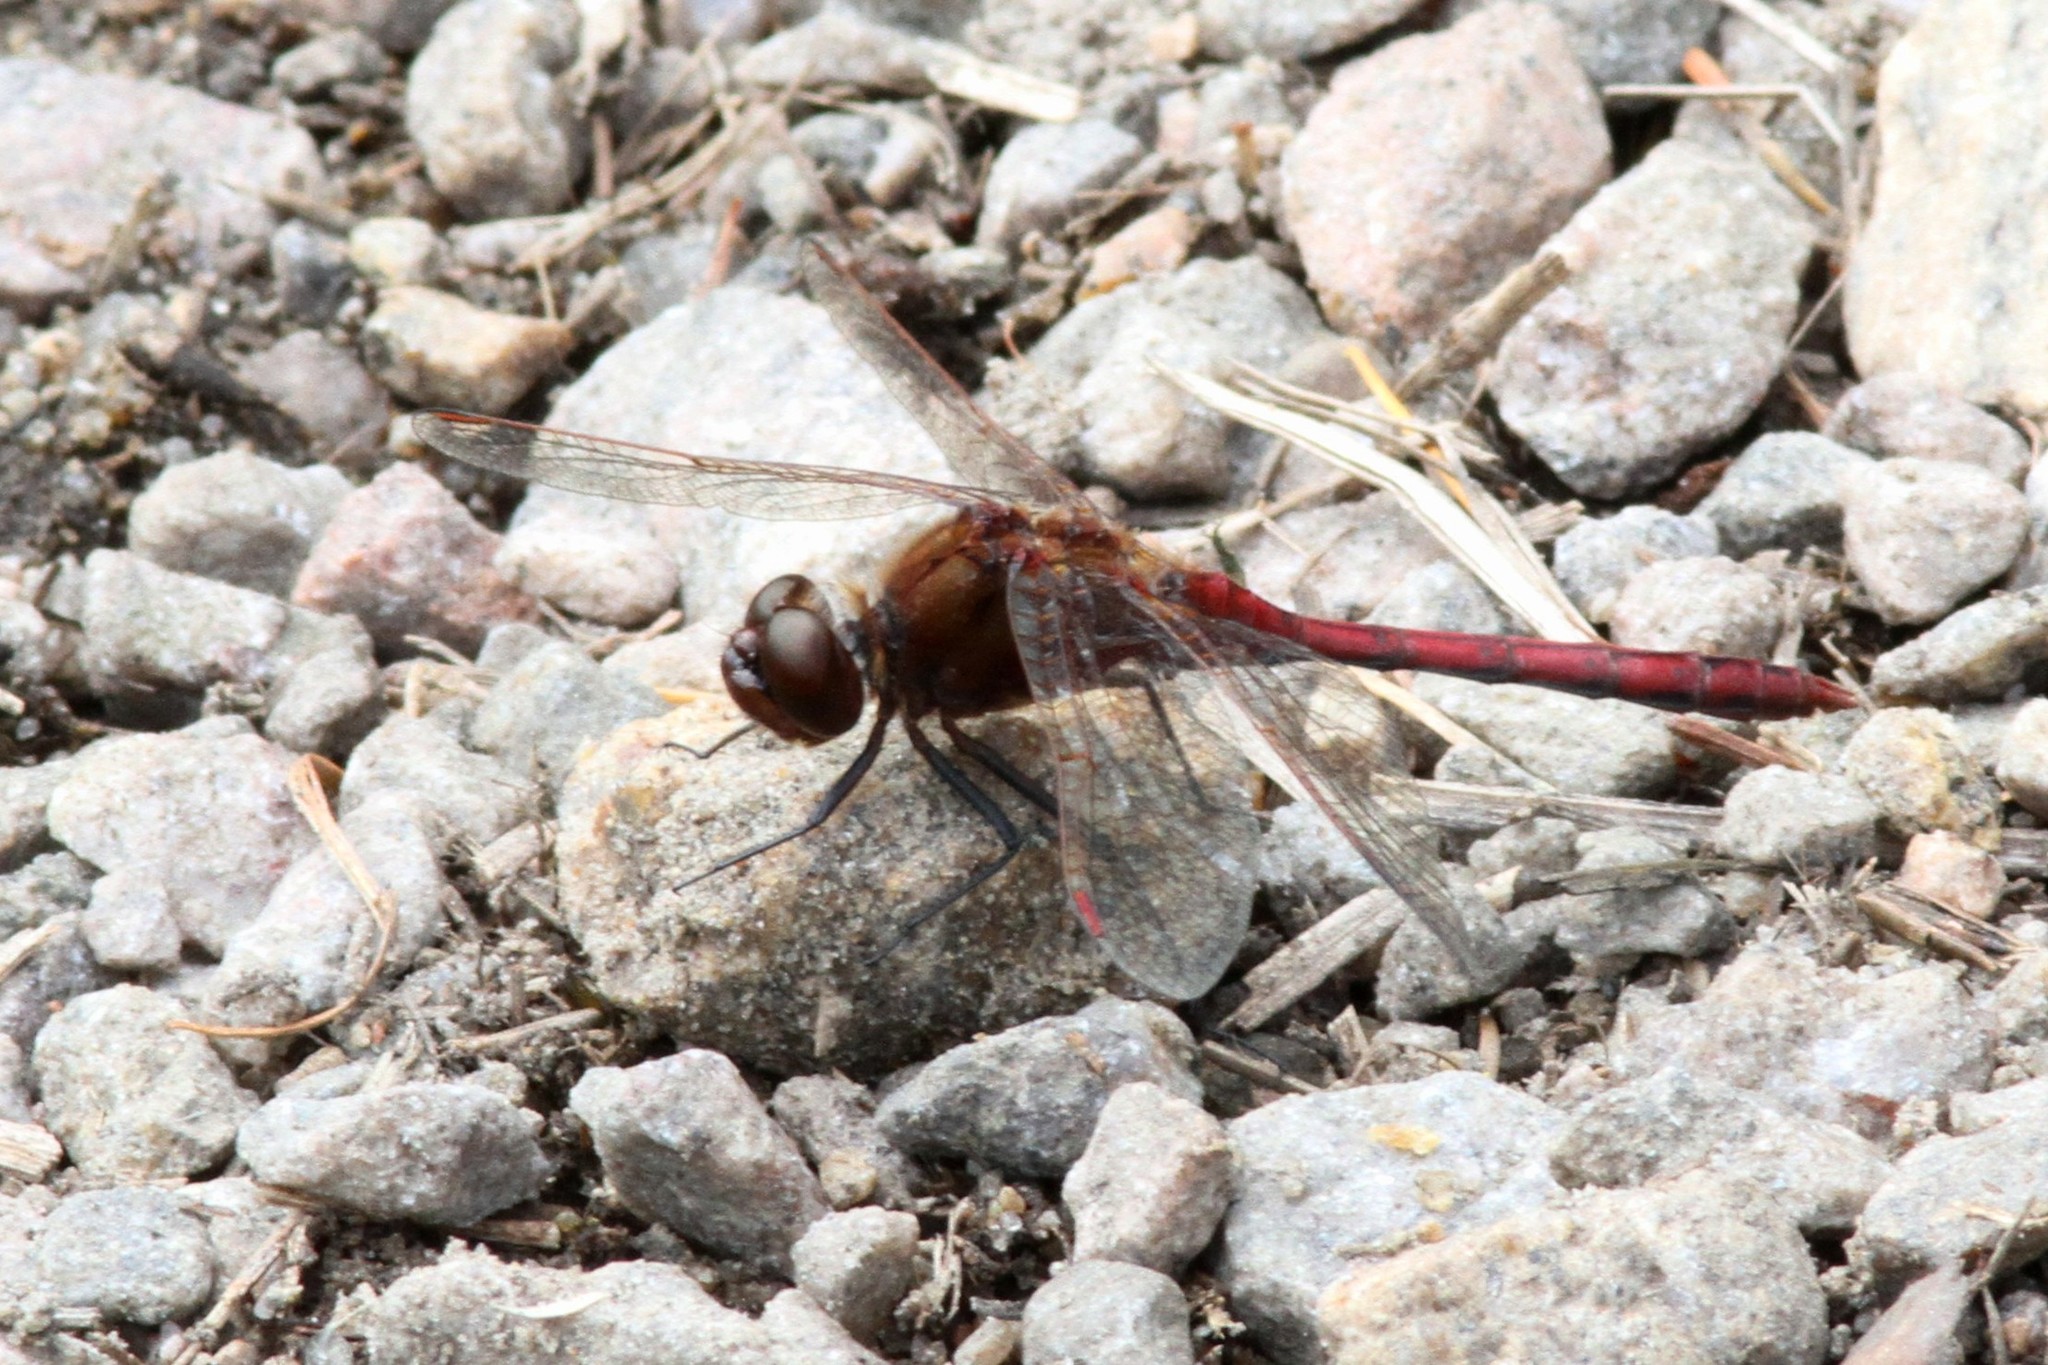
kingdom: Animalia
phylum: Arthropoda
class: Insecta
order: Odonata
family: Libellulidae
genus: Sympetrum
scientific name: Sympetrum costiferum
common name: Saffron-winged meadowhawk
